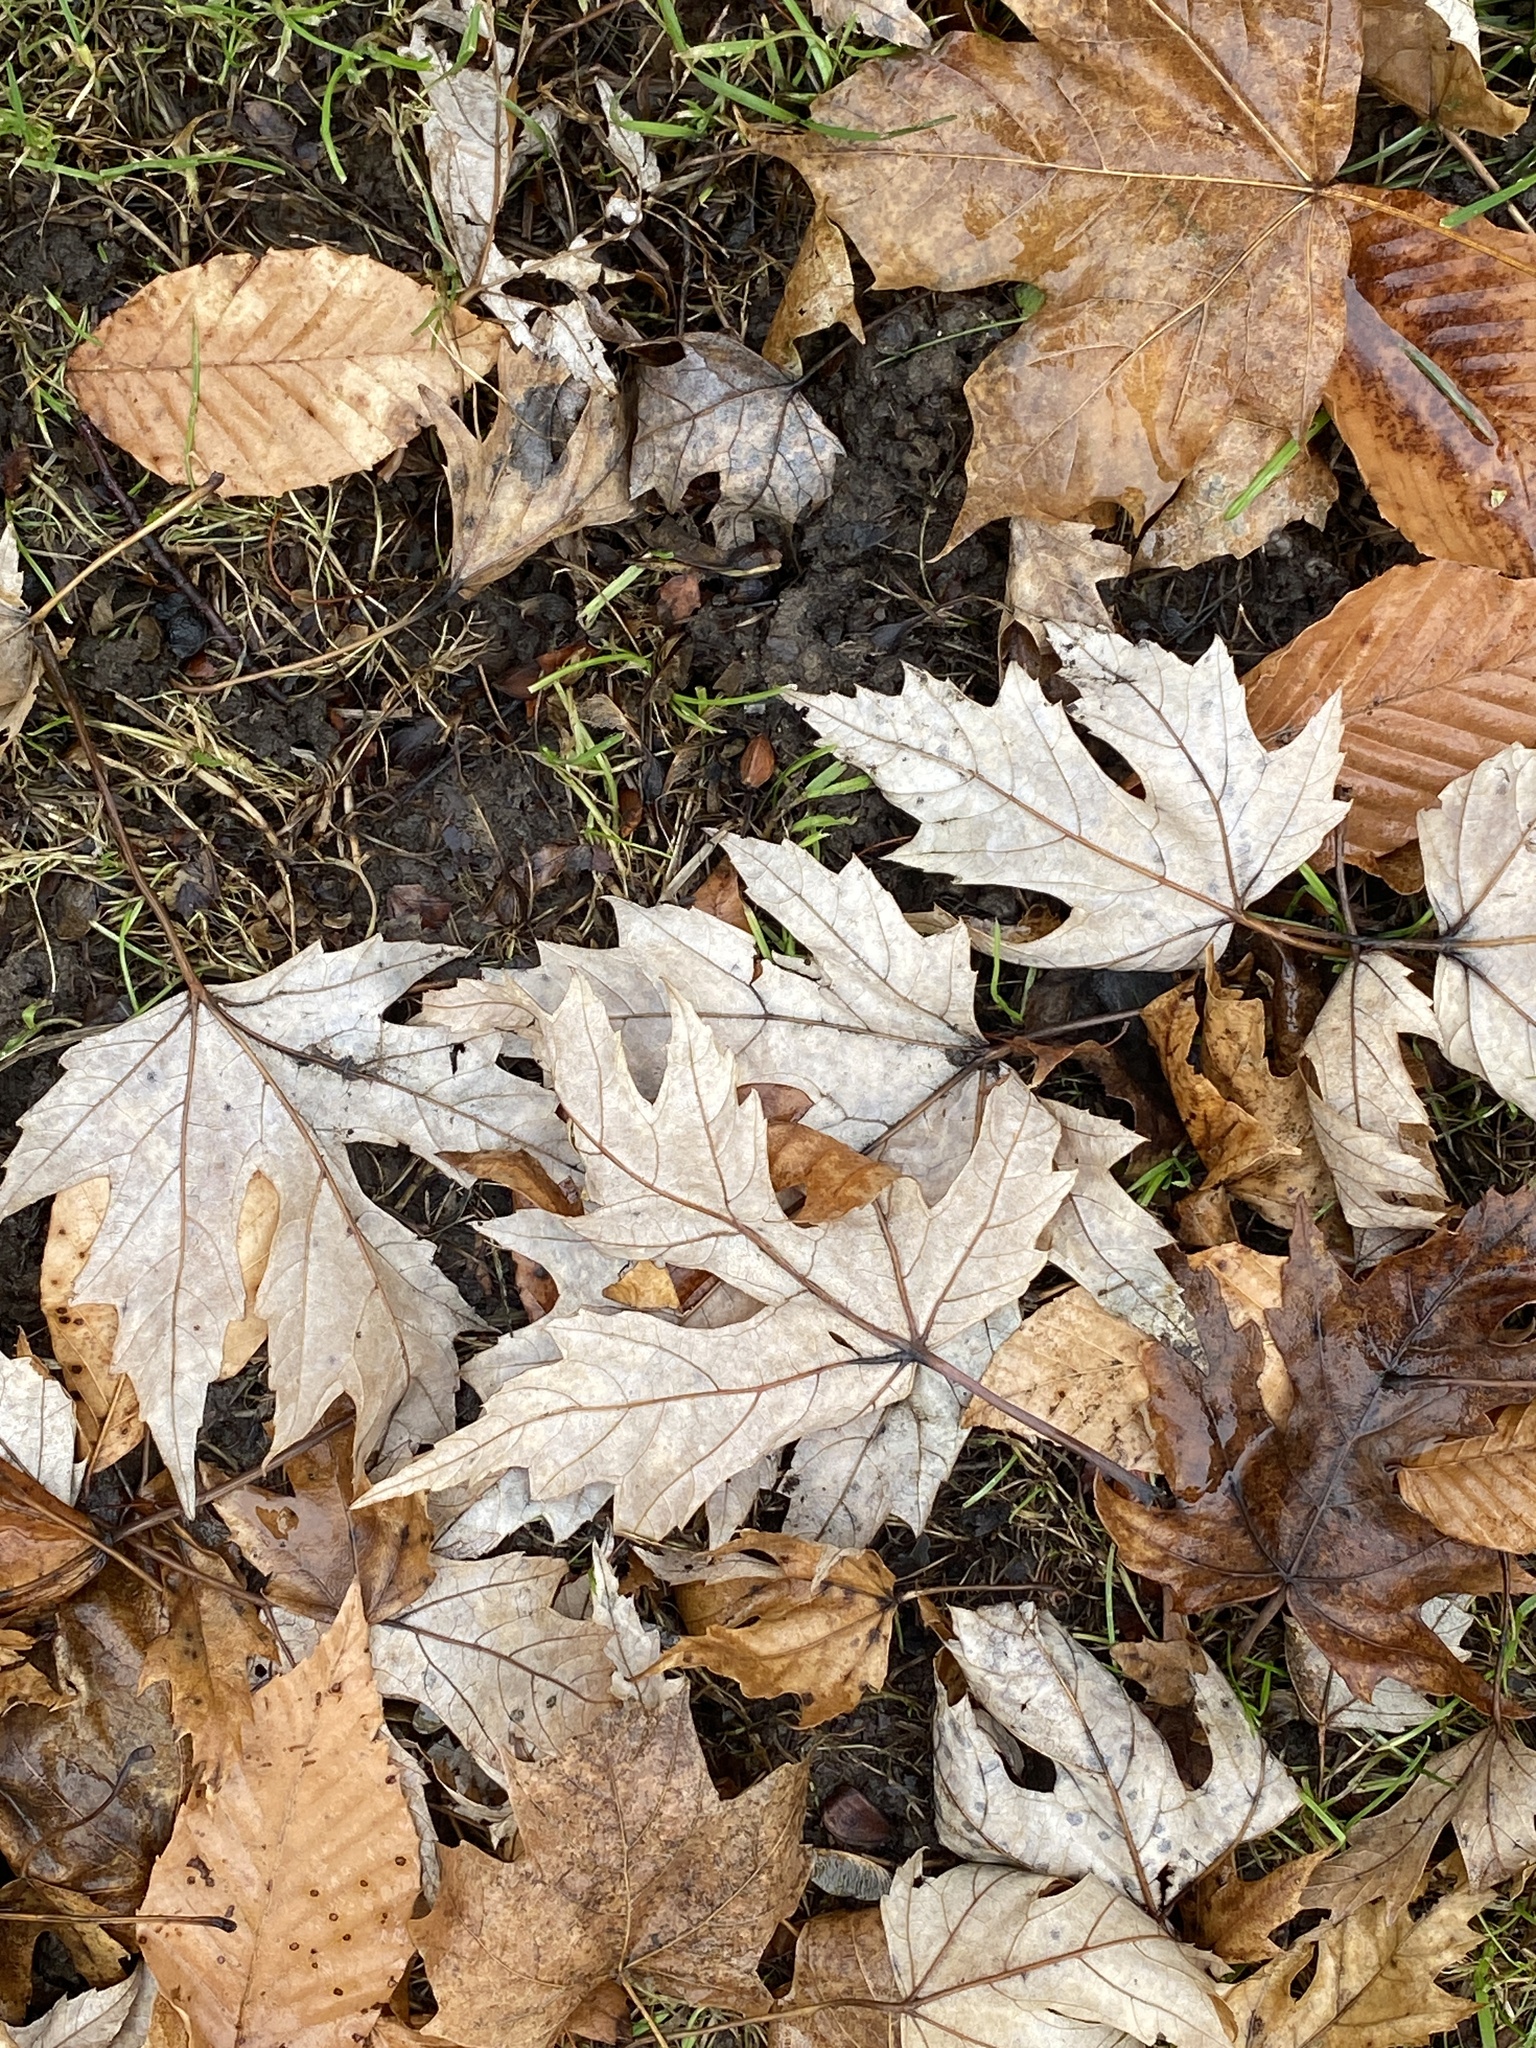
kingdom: Plantae
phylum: Tracheophyta
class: Magnoliopsida
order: Sapindales
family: Sapindaceae
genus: Acer
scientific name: Acer saccharinum
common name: Silver maple
